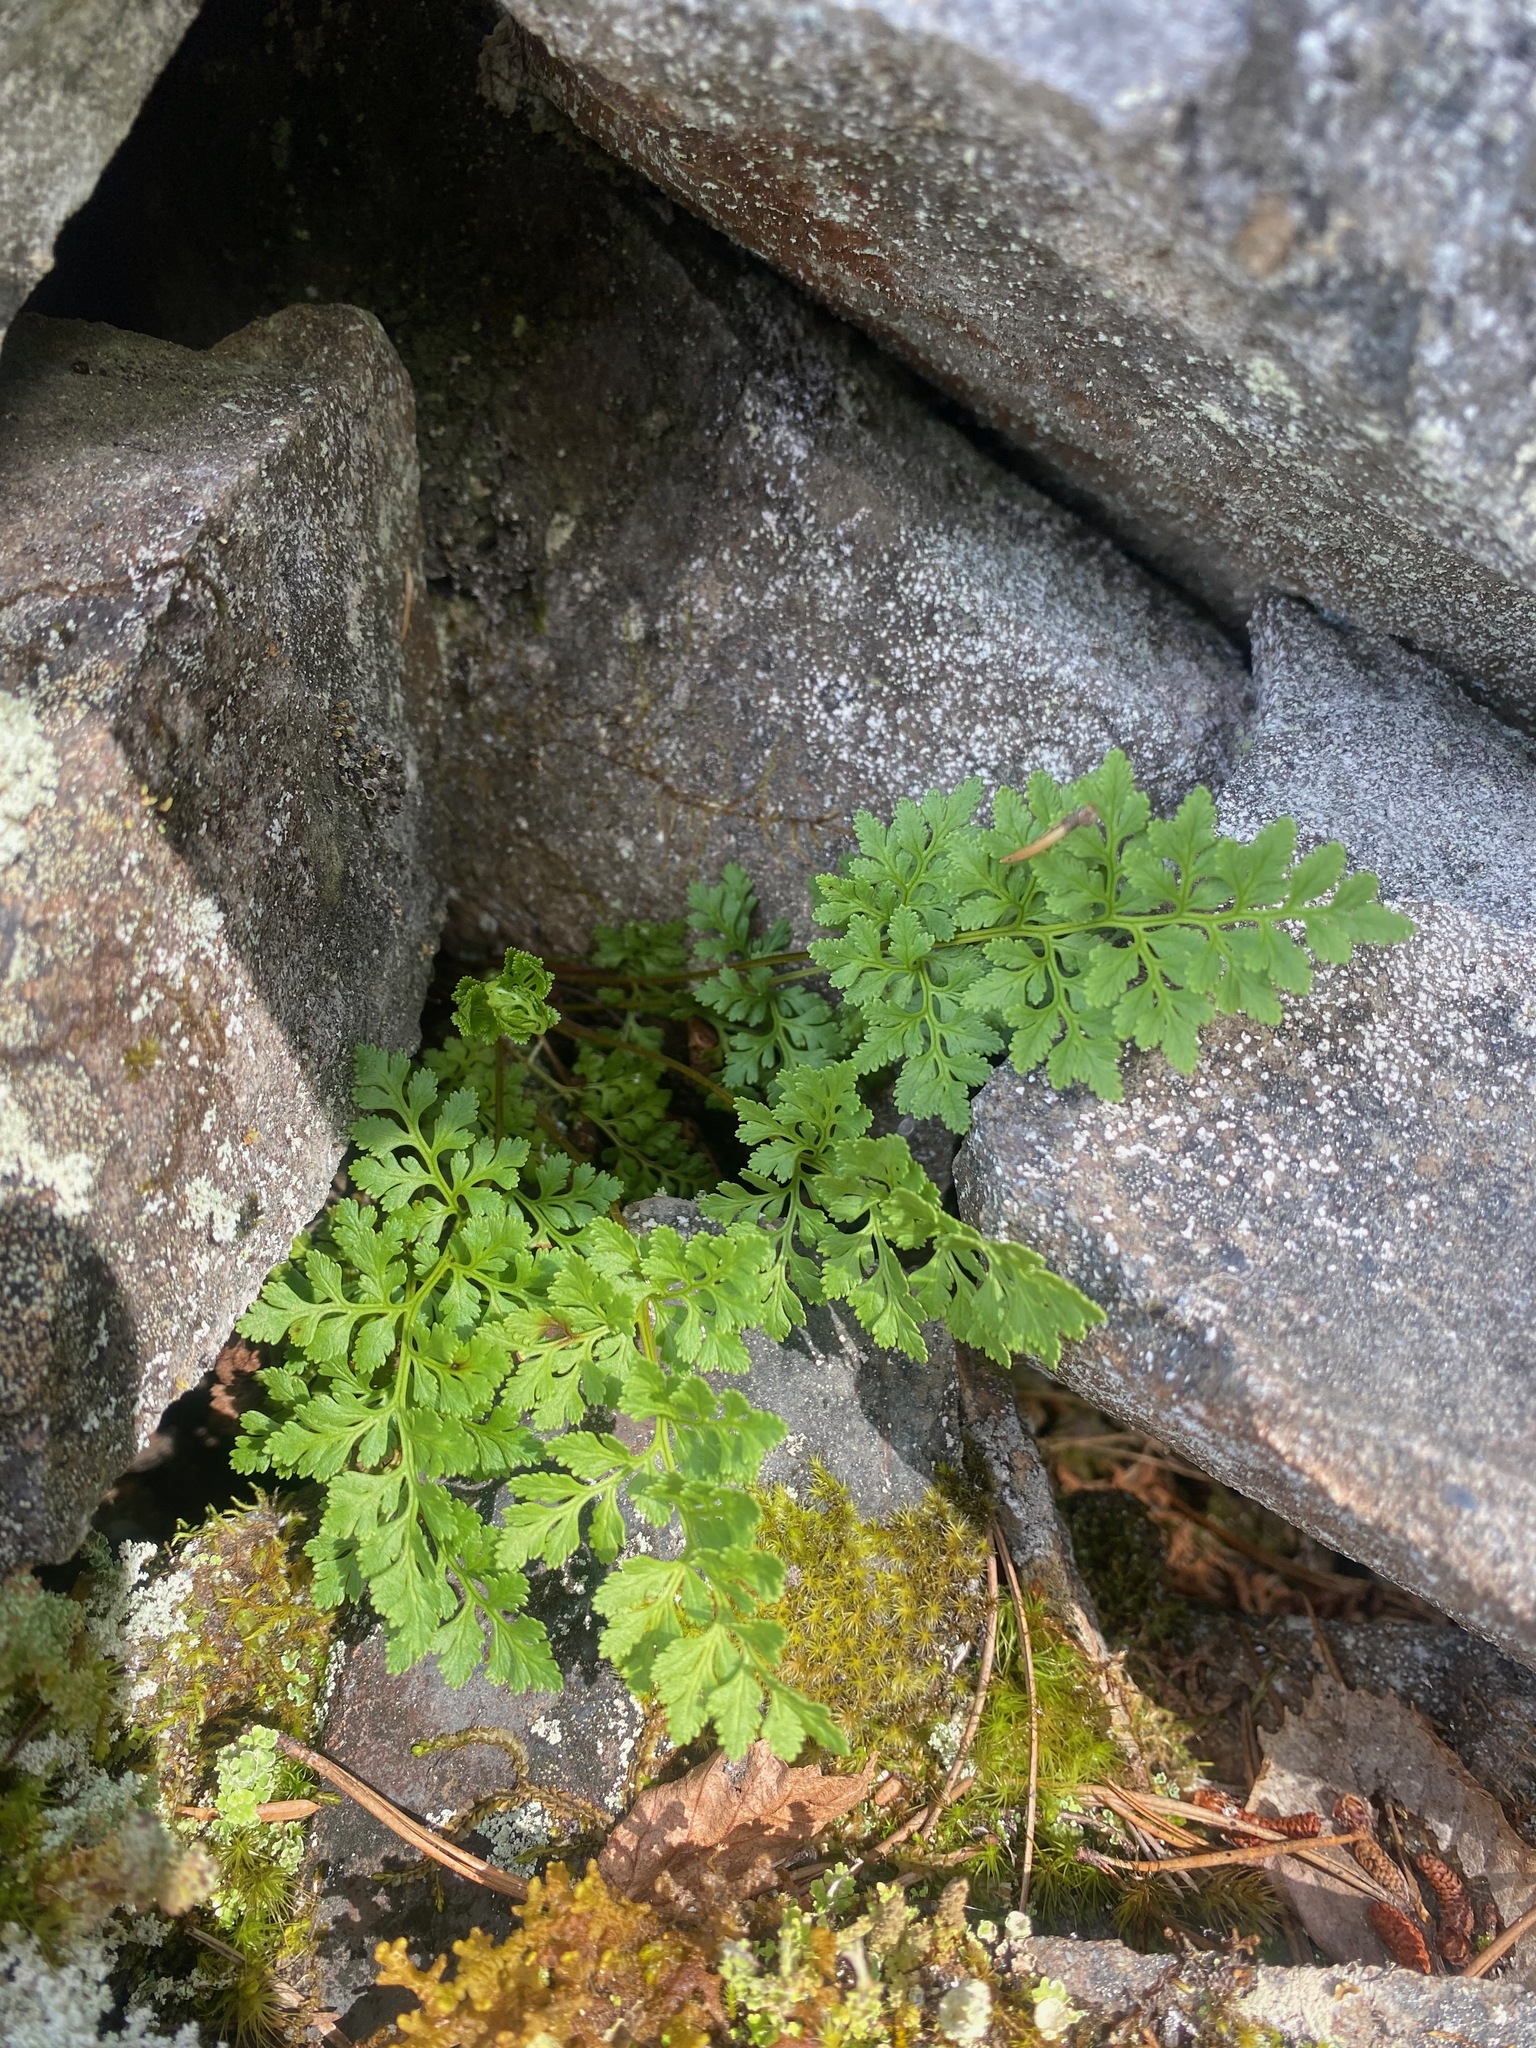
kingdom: Plantae
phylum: Tracheophyta
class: Polypodiopsida
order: Polypodiales
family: Pteridaceae
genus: Cryptogramma
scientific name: Cryptogramma acrostichoides
